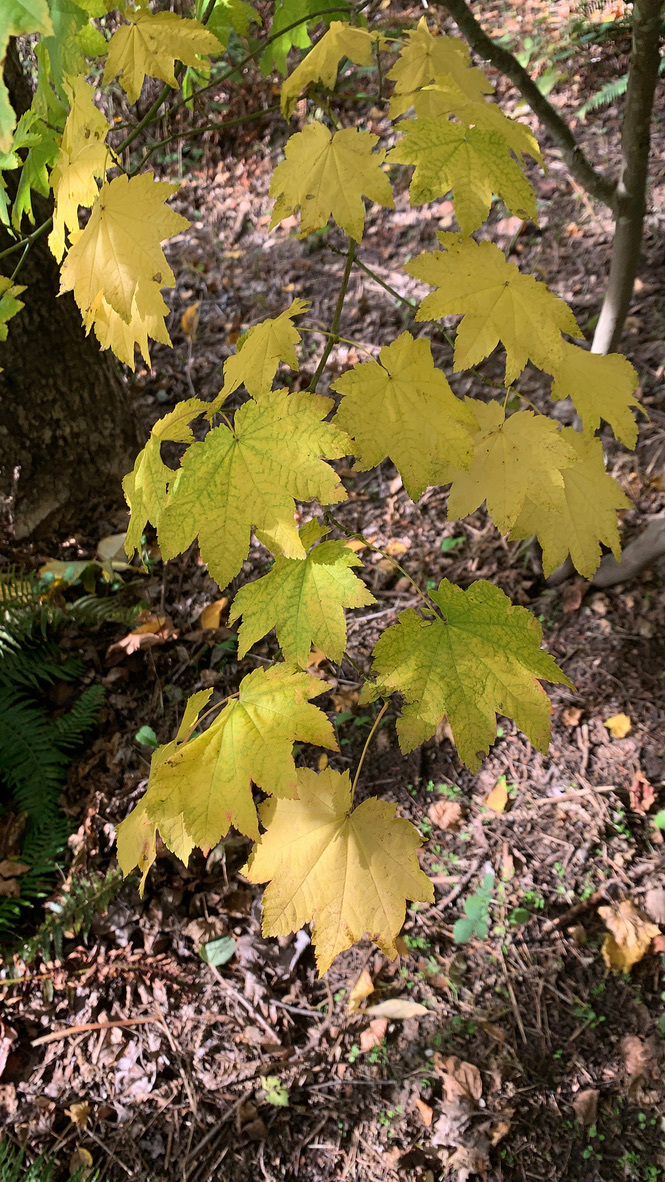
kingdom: Plantae
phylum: Tracheophyta
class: Magnoliopsida
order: Sapindales
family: Sapindaceae
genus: Acer
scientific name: Acer circinatum
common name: Vine maple
